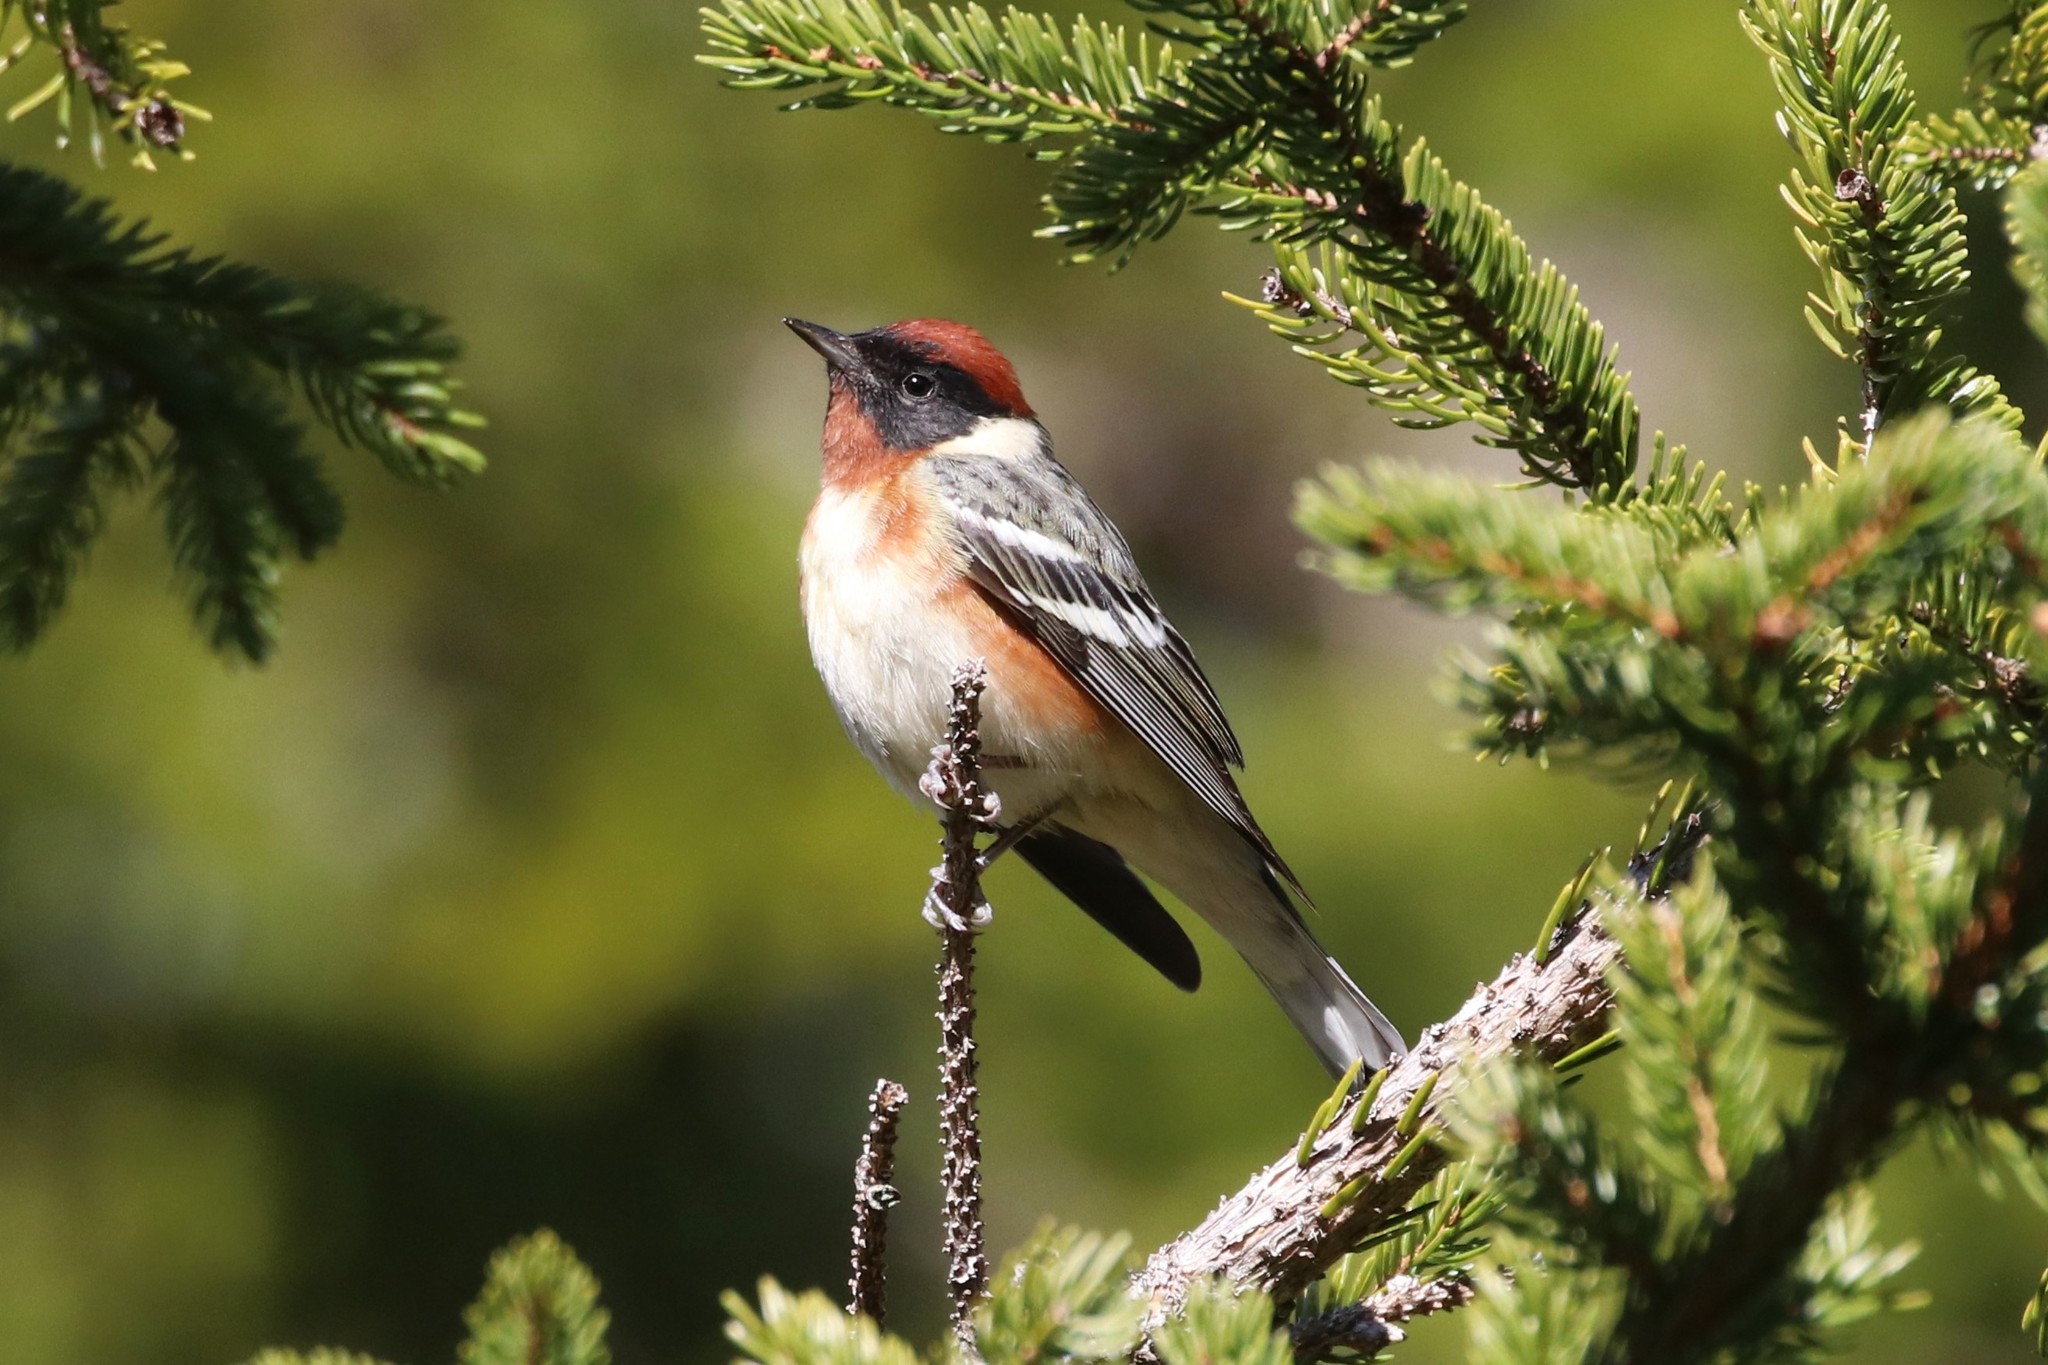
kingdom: Animalia
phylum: Chordata
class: Aves
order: Passeriformes
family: Parulidae
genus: Setophaga
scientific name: Setophaga castanea
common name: Bay-breasted warbler
